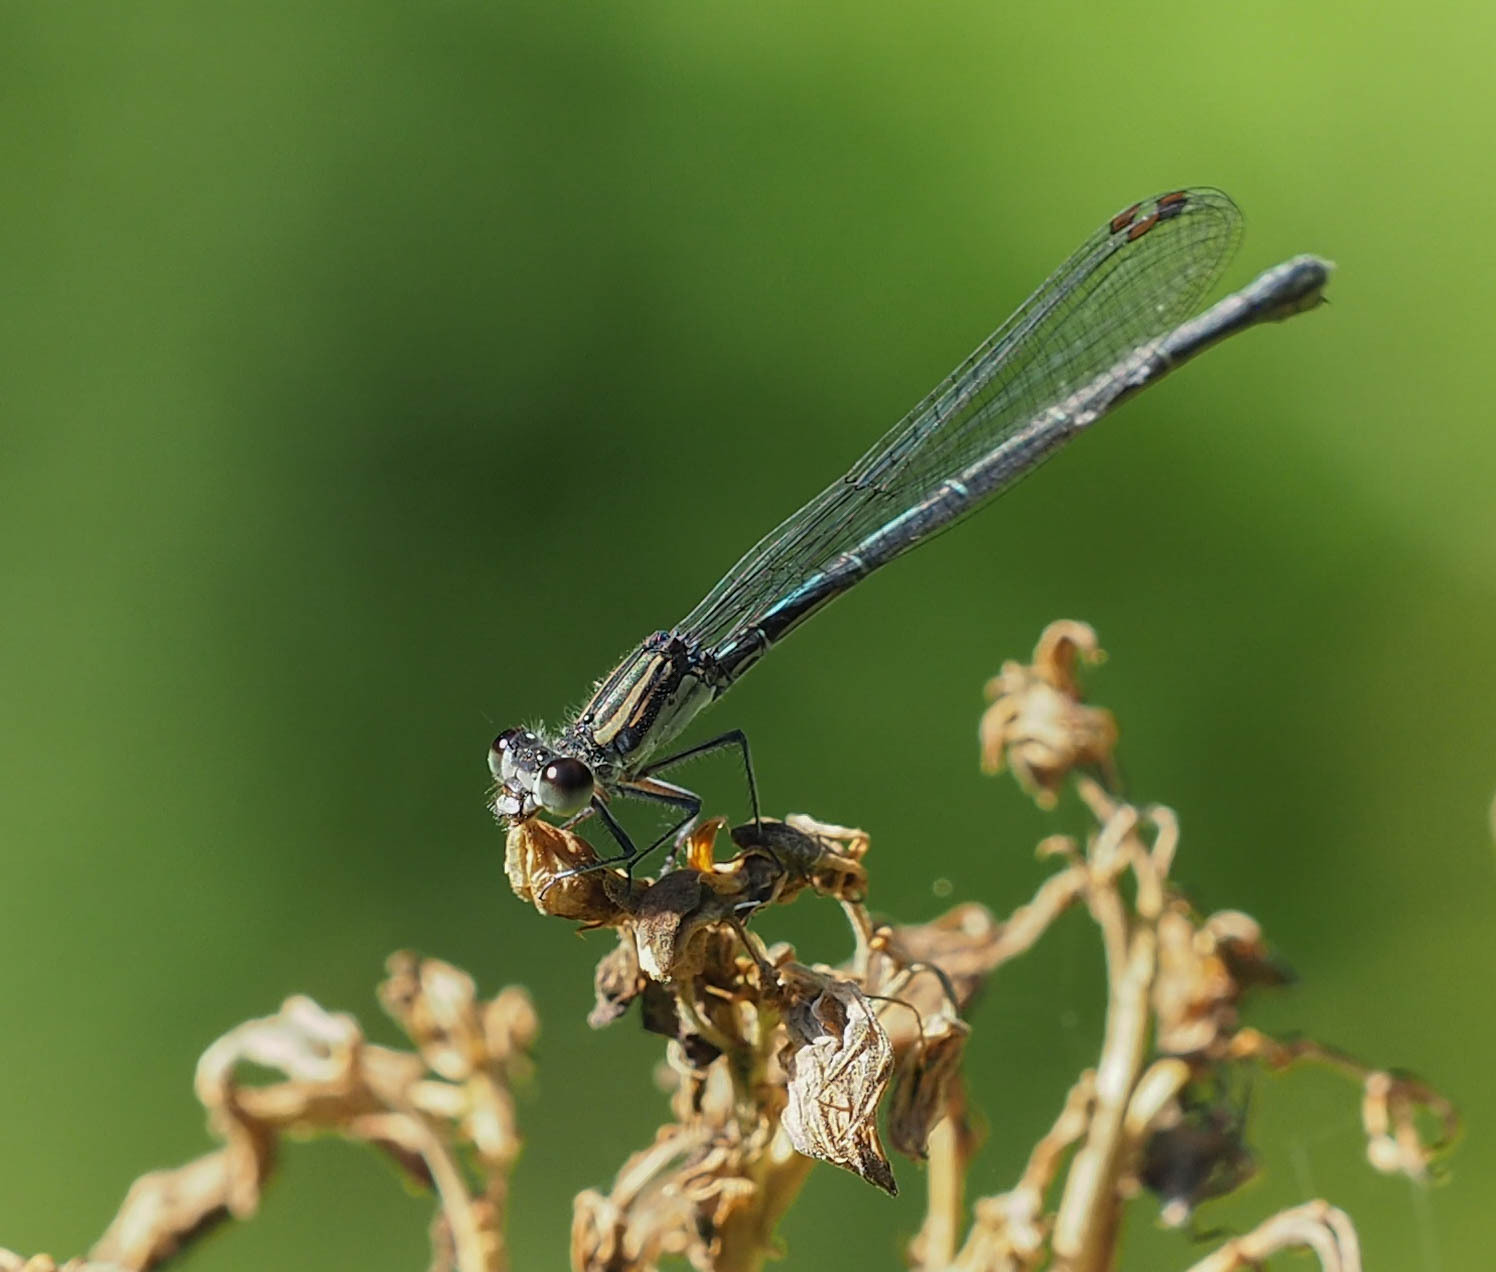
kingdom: Animalia
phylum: Arthropoda
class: Insecta
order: Odonata
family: Coenagrionidae
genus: Argia
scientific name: Argia translata
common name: Dusky dancer
